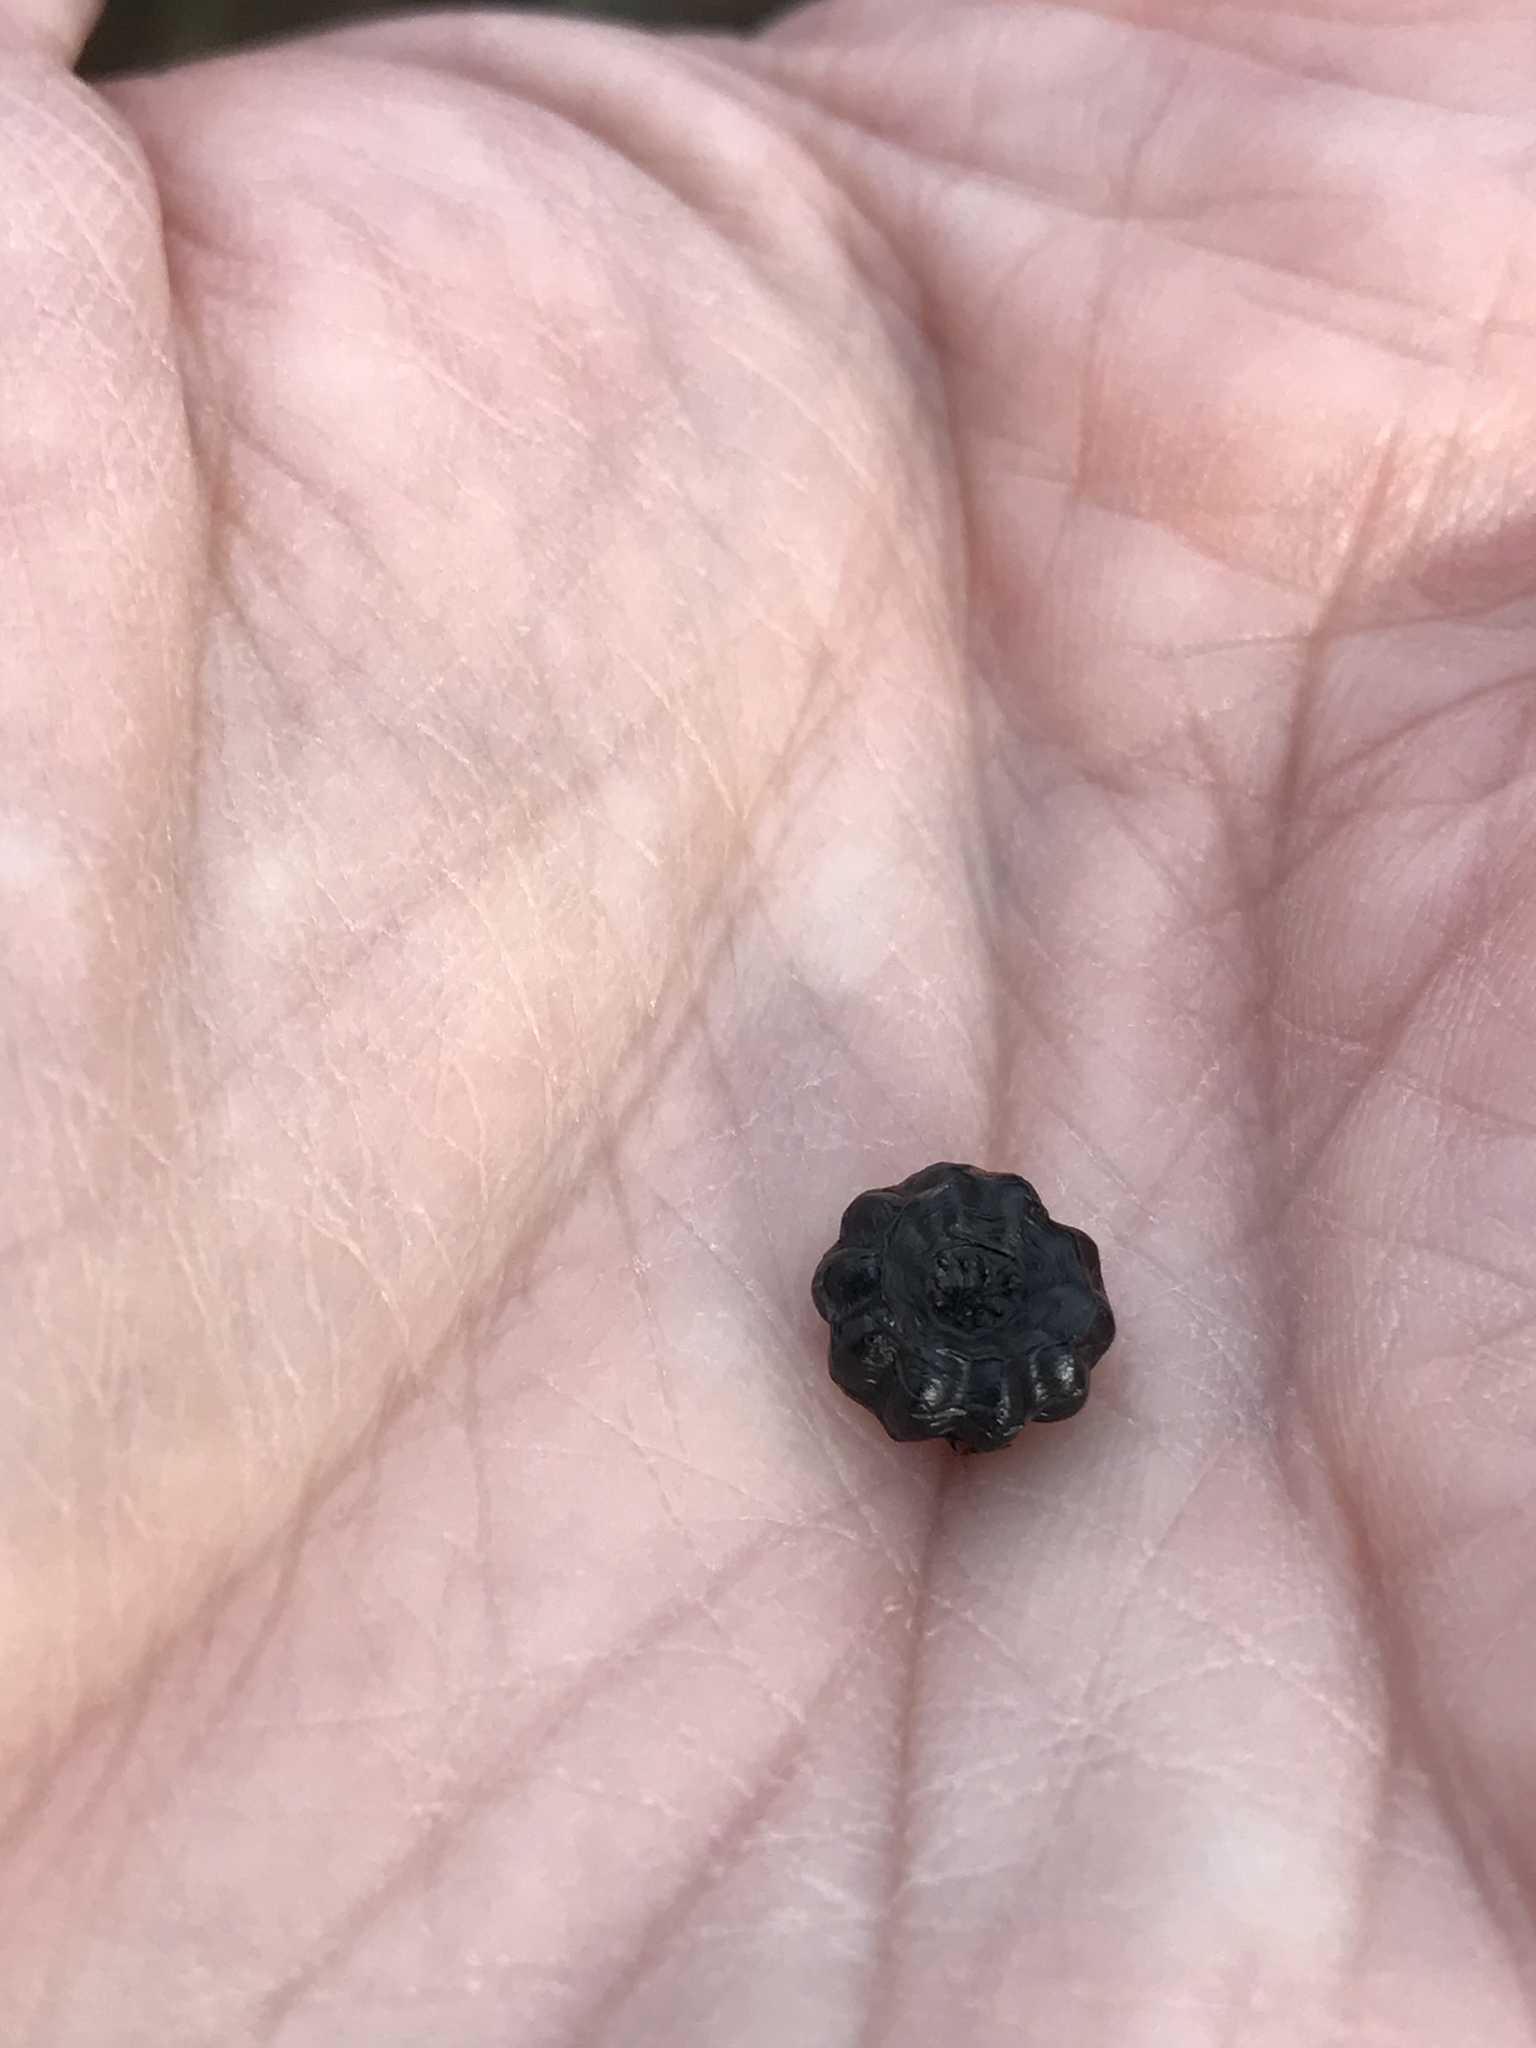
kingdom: Plantae
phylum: Tracheophyta
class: Magnoliopsida
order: Caryophyllales
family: Phytolaccaceae
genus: Phytolacca
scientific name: Phytolacca americana
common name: American pokeweed
